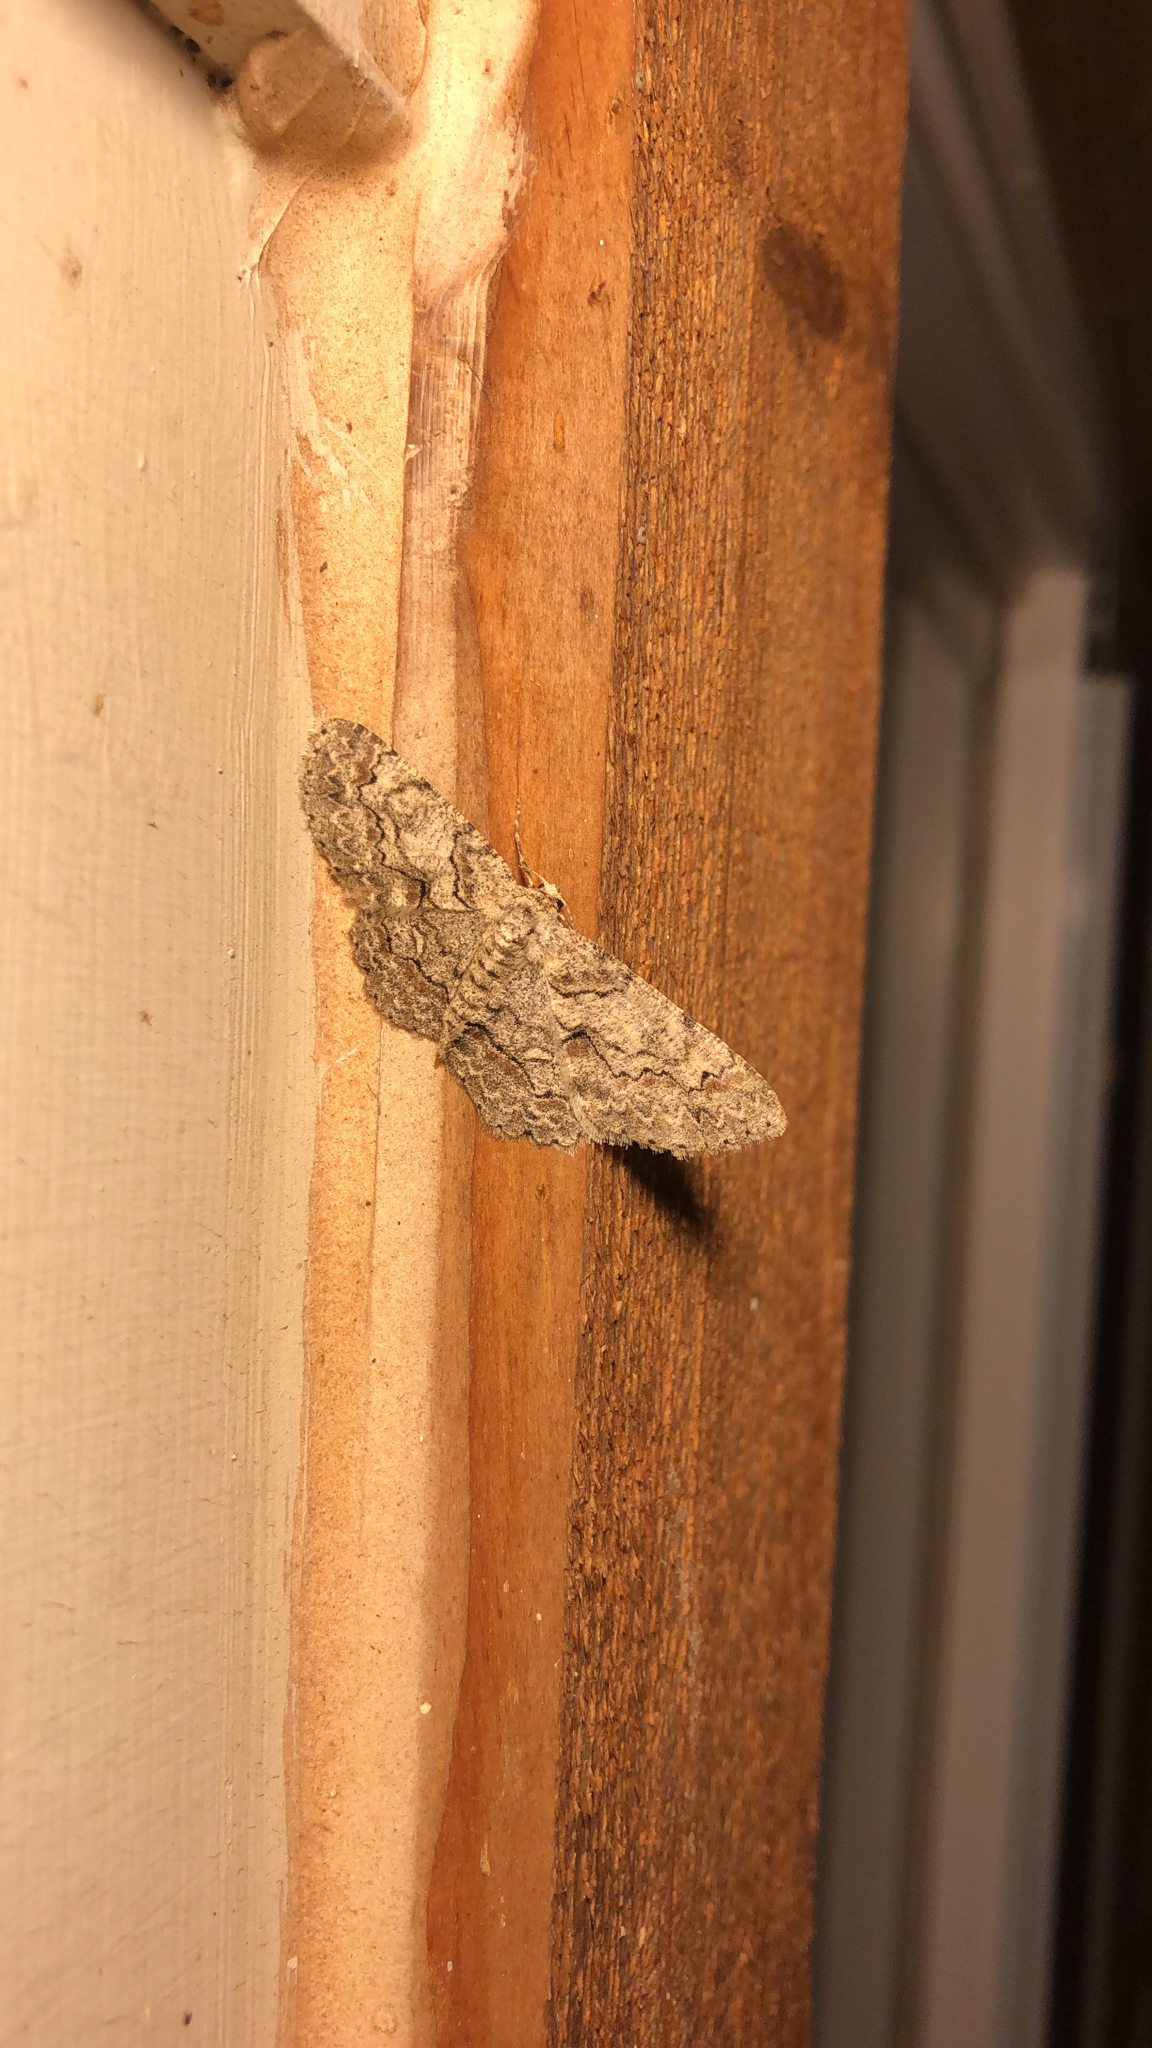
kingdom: Animalia
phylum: Arthropoda
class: Insecta
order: Lepidoptera
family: Geometridae
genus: Iridopsis
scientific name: Iridopsis defectaria
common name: Brown-shaded gray
